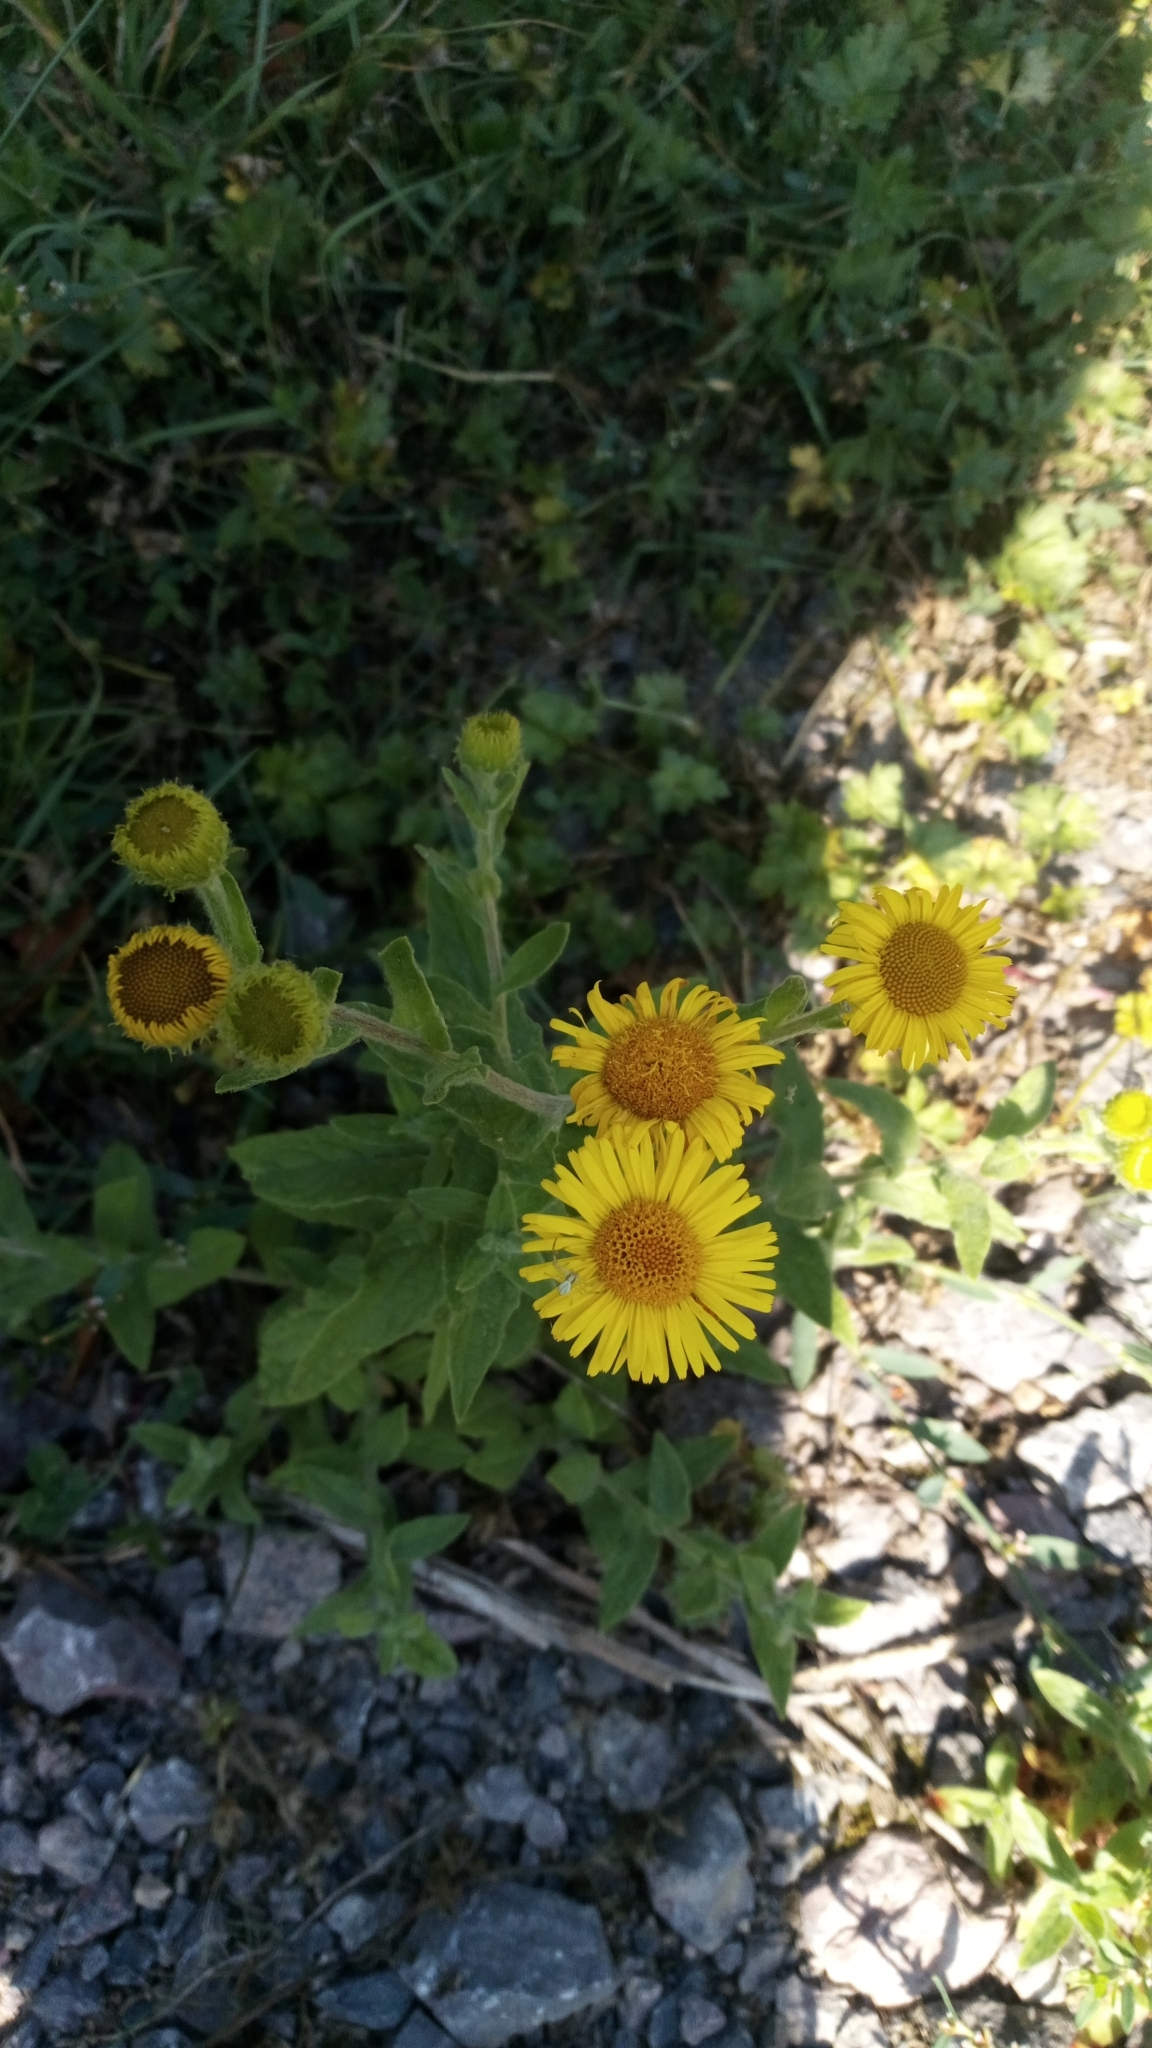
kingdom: Plantae
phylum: Tracheophyta
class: Magnoliopsida
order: Asterales
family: Asteraceae
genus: Pulicaria
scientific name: Pulicaria dysenterica
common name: Common fleabane
